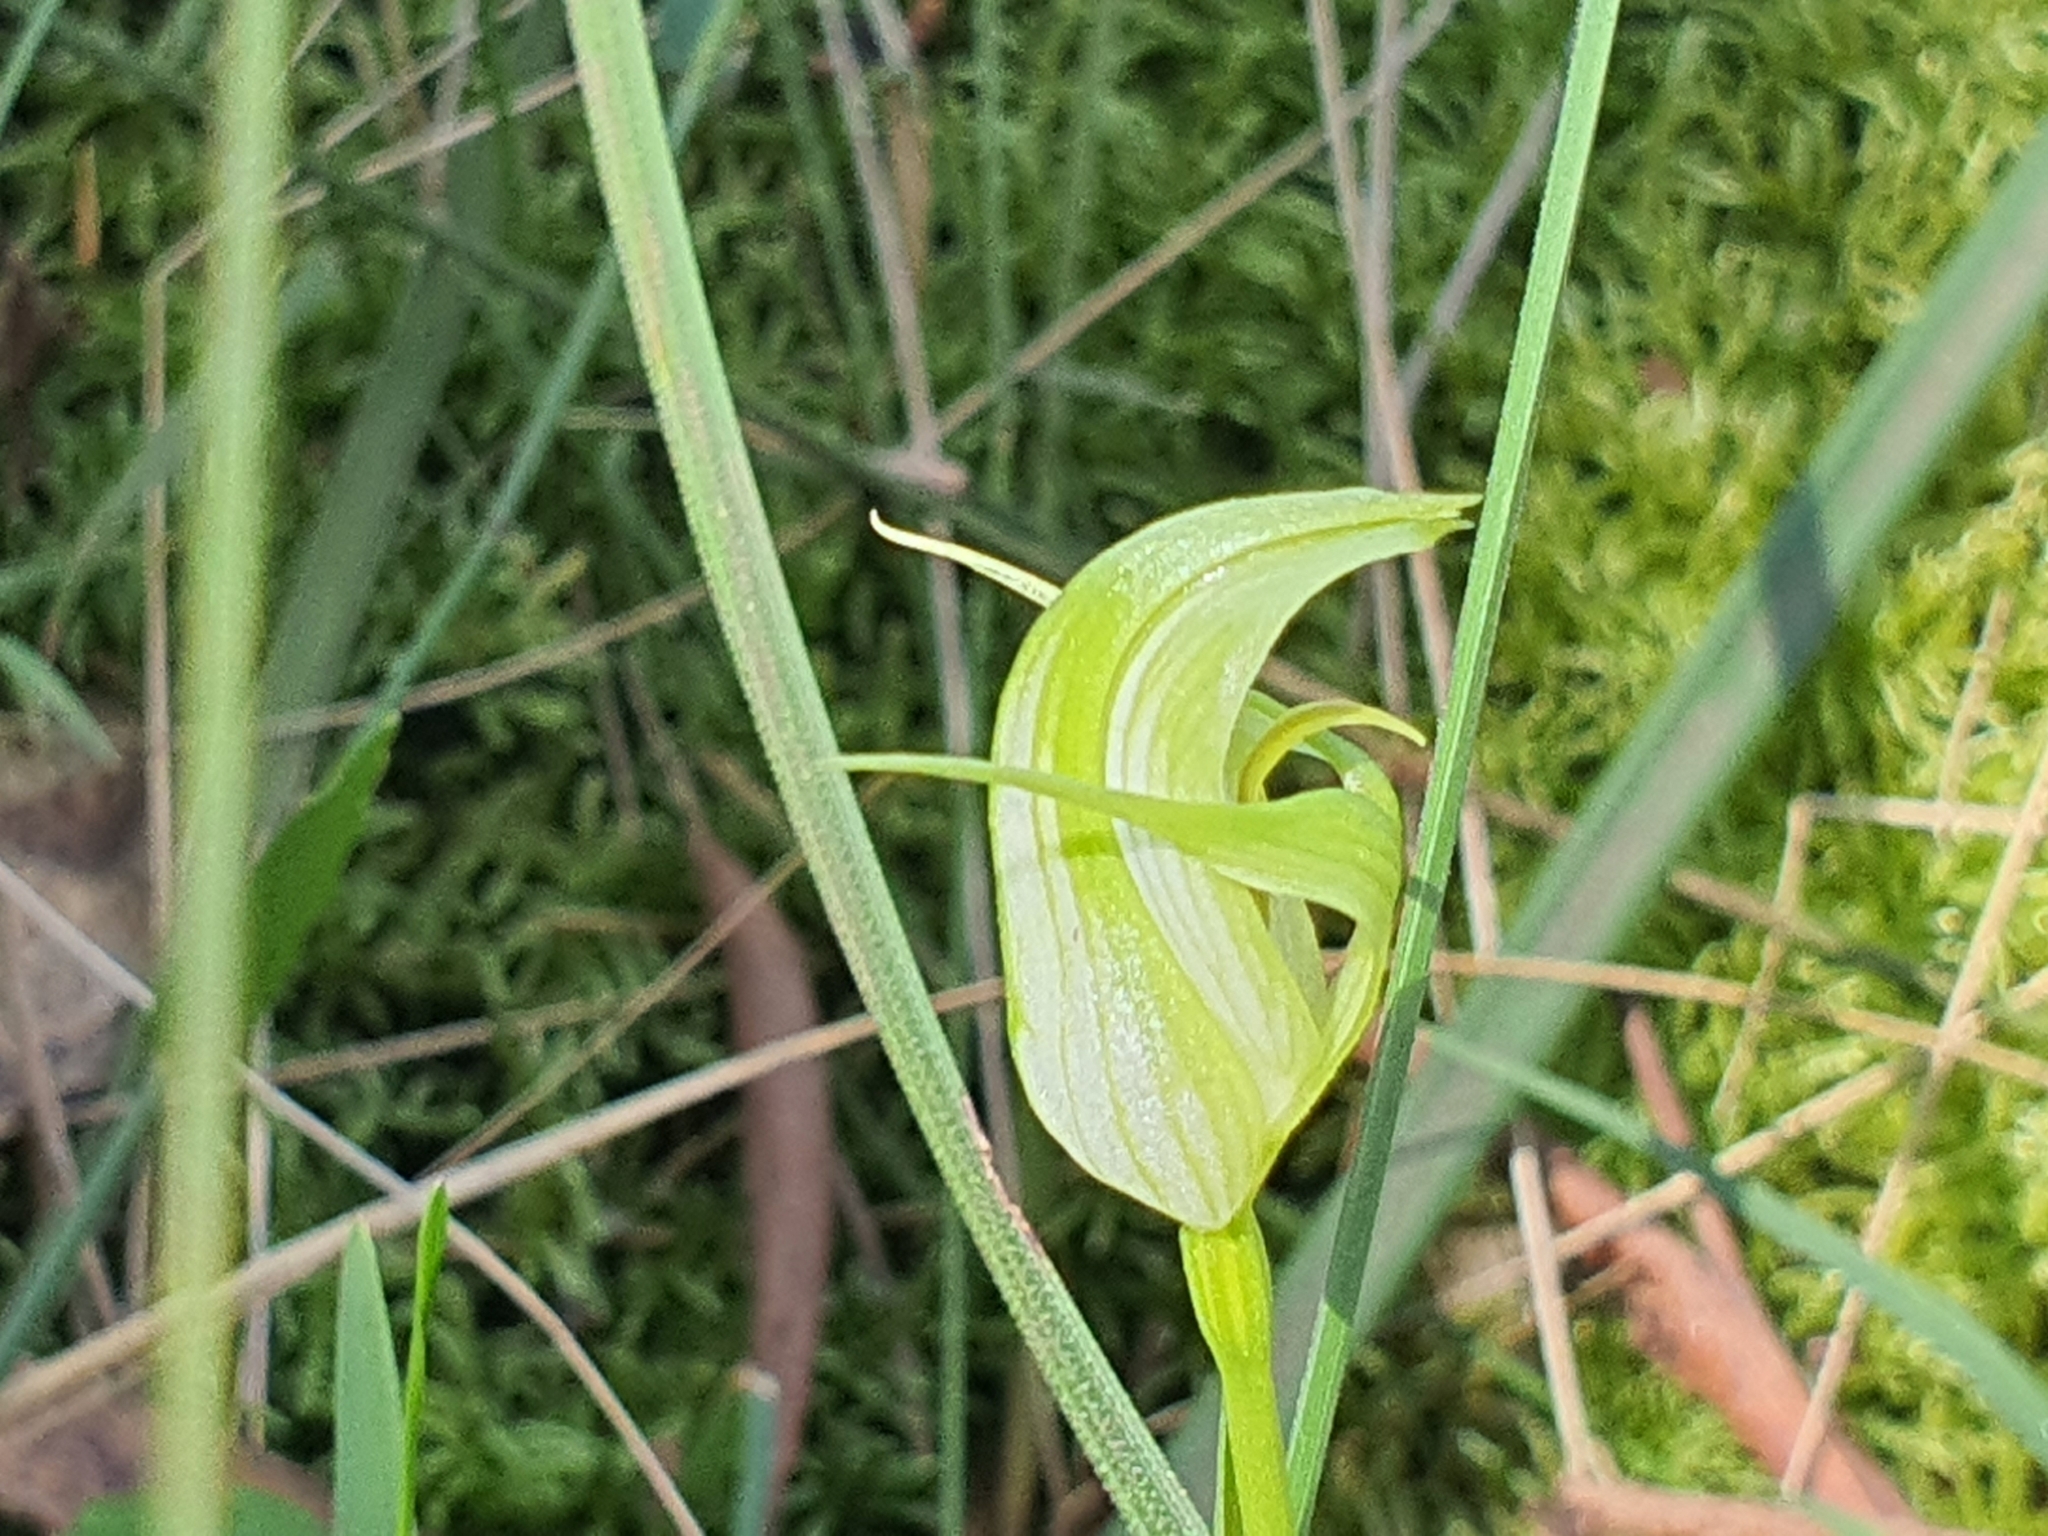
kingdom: Plantae
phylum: Tracheophyta
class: Liliopsida
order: Asparagales
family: Orchidaceae
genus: Pterostylis
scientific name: Pterostylis alpina
